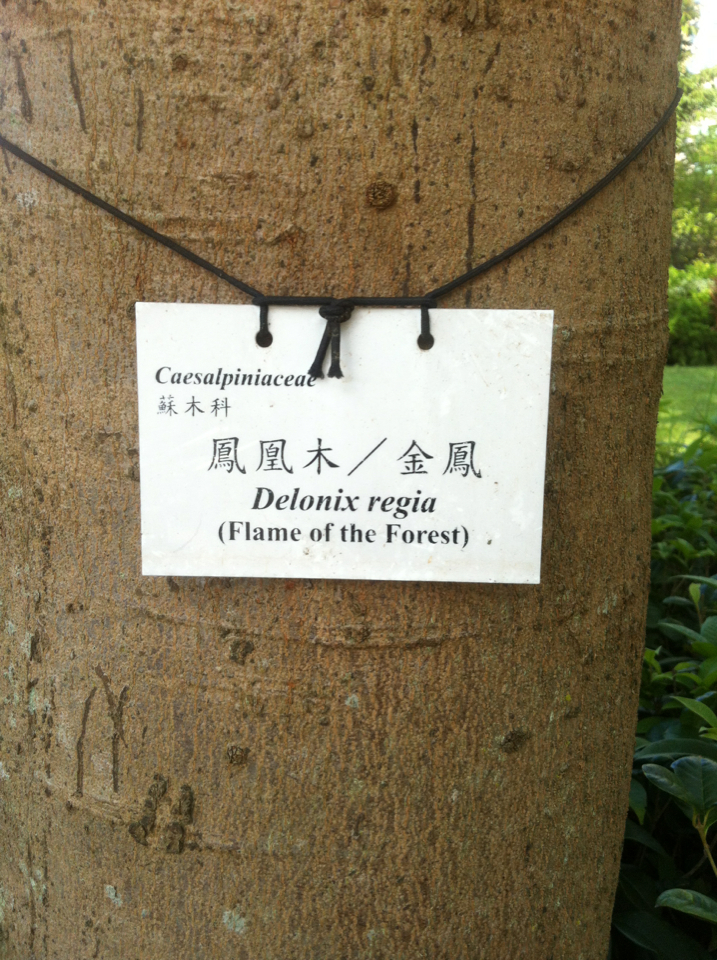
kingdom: Plantae
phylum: Tracheophyta
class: Magnoliopsida
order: Fabales
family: Fabaceae
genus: Delonix
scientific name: Delonix regia
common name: Royal poinciana
